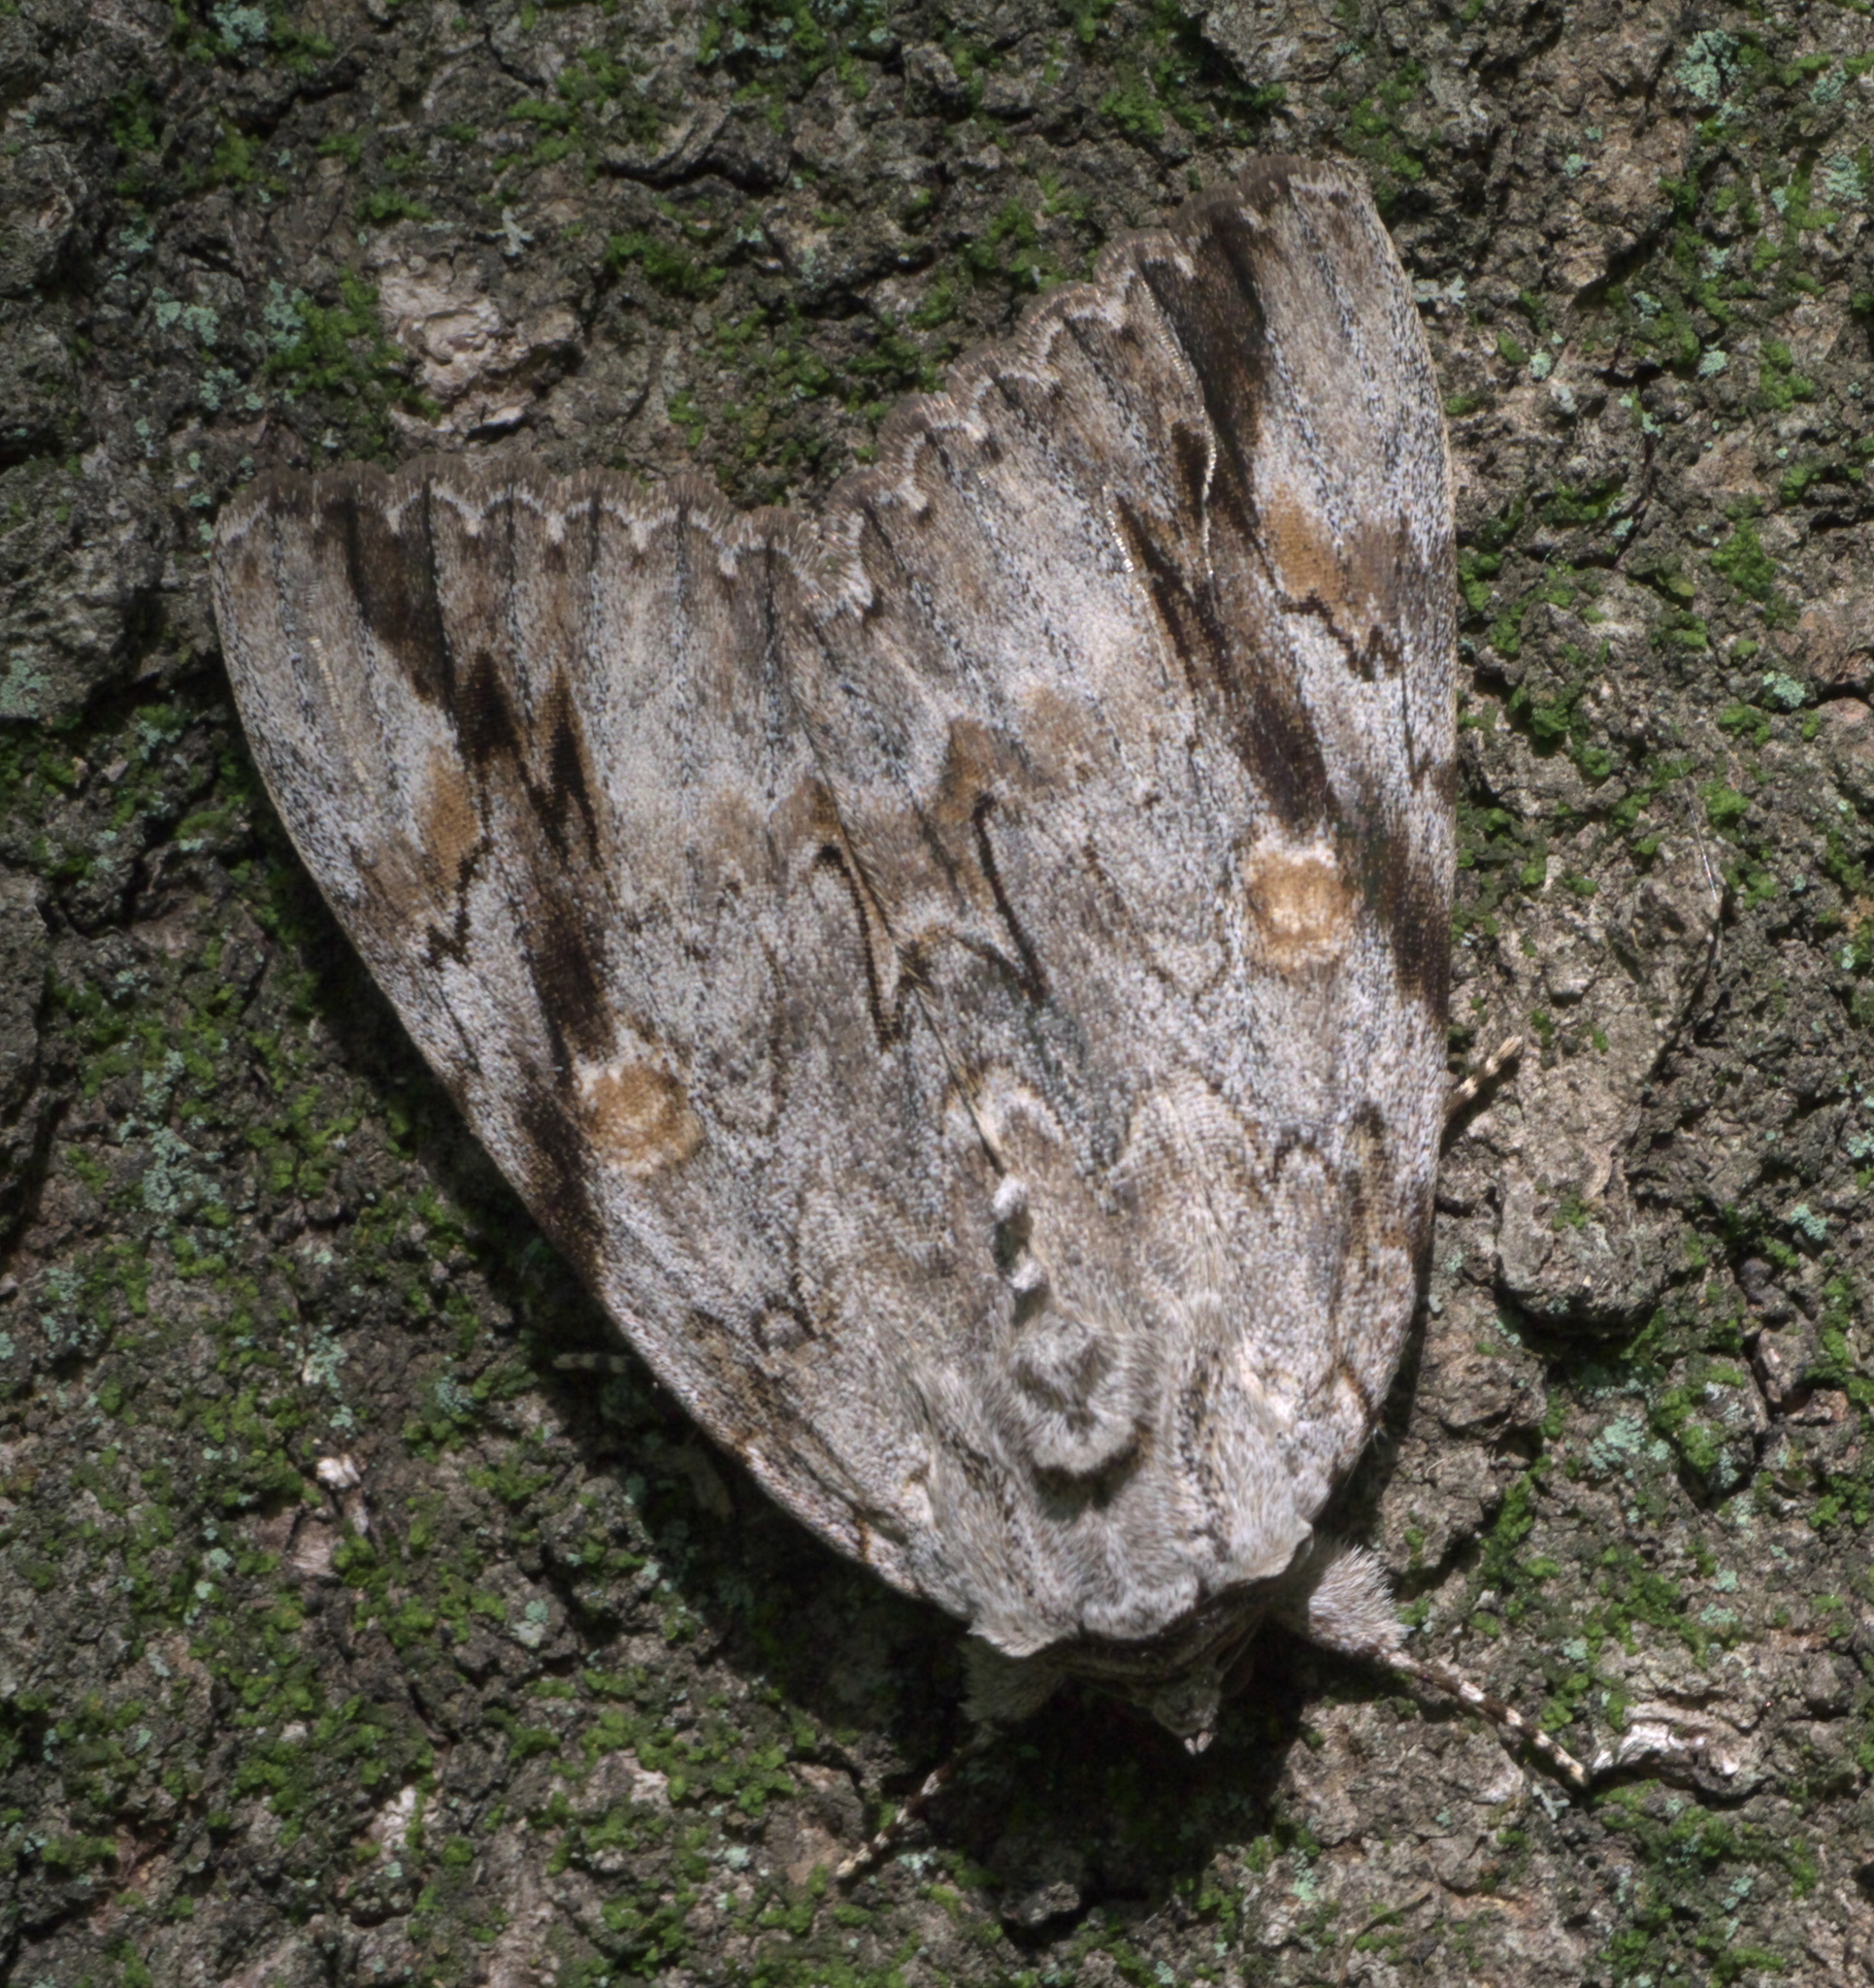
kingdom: Animalia
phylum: Arthropoda
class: Insecta
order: Lepidoptera
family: Erebidae
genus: Catocala
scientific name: Catocala maestosa
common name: Sad underwing
